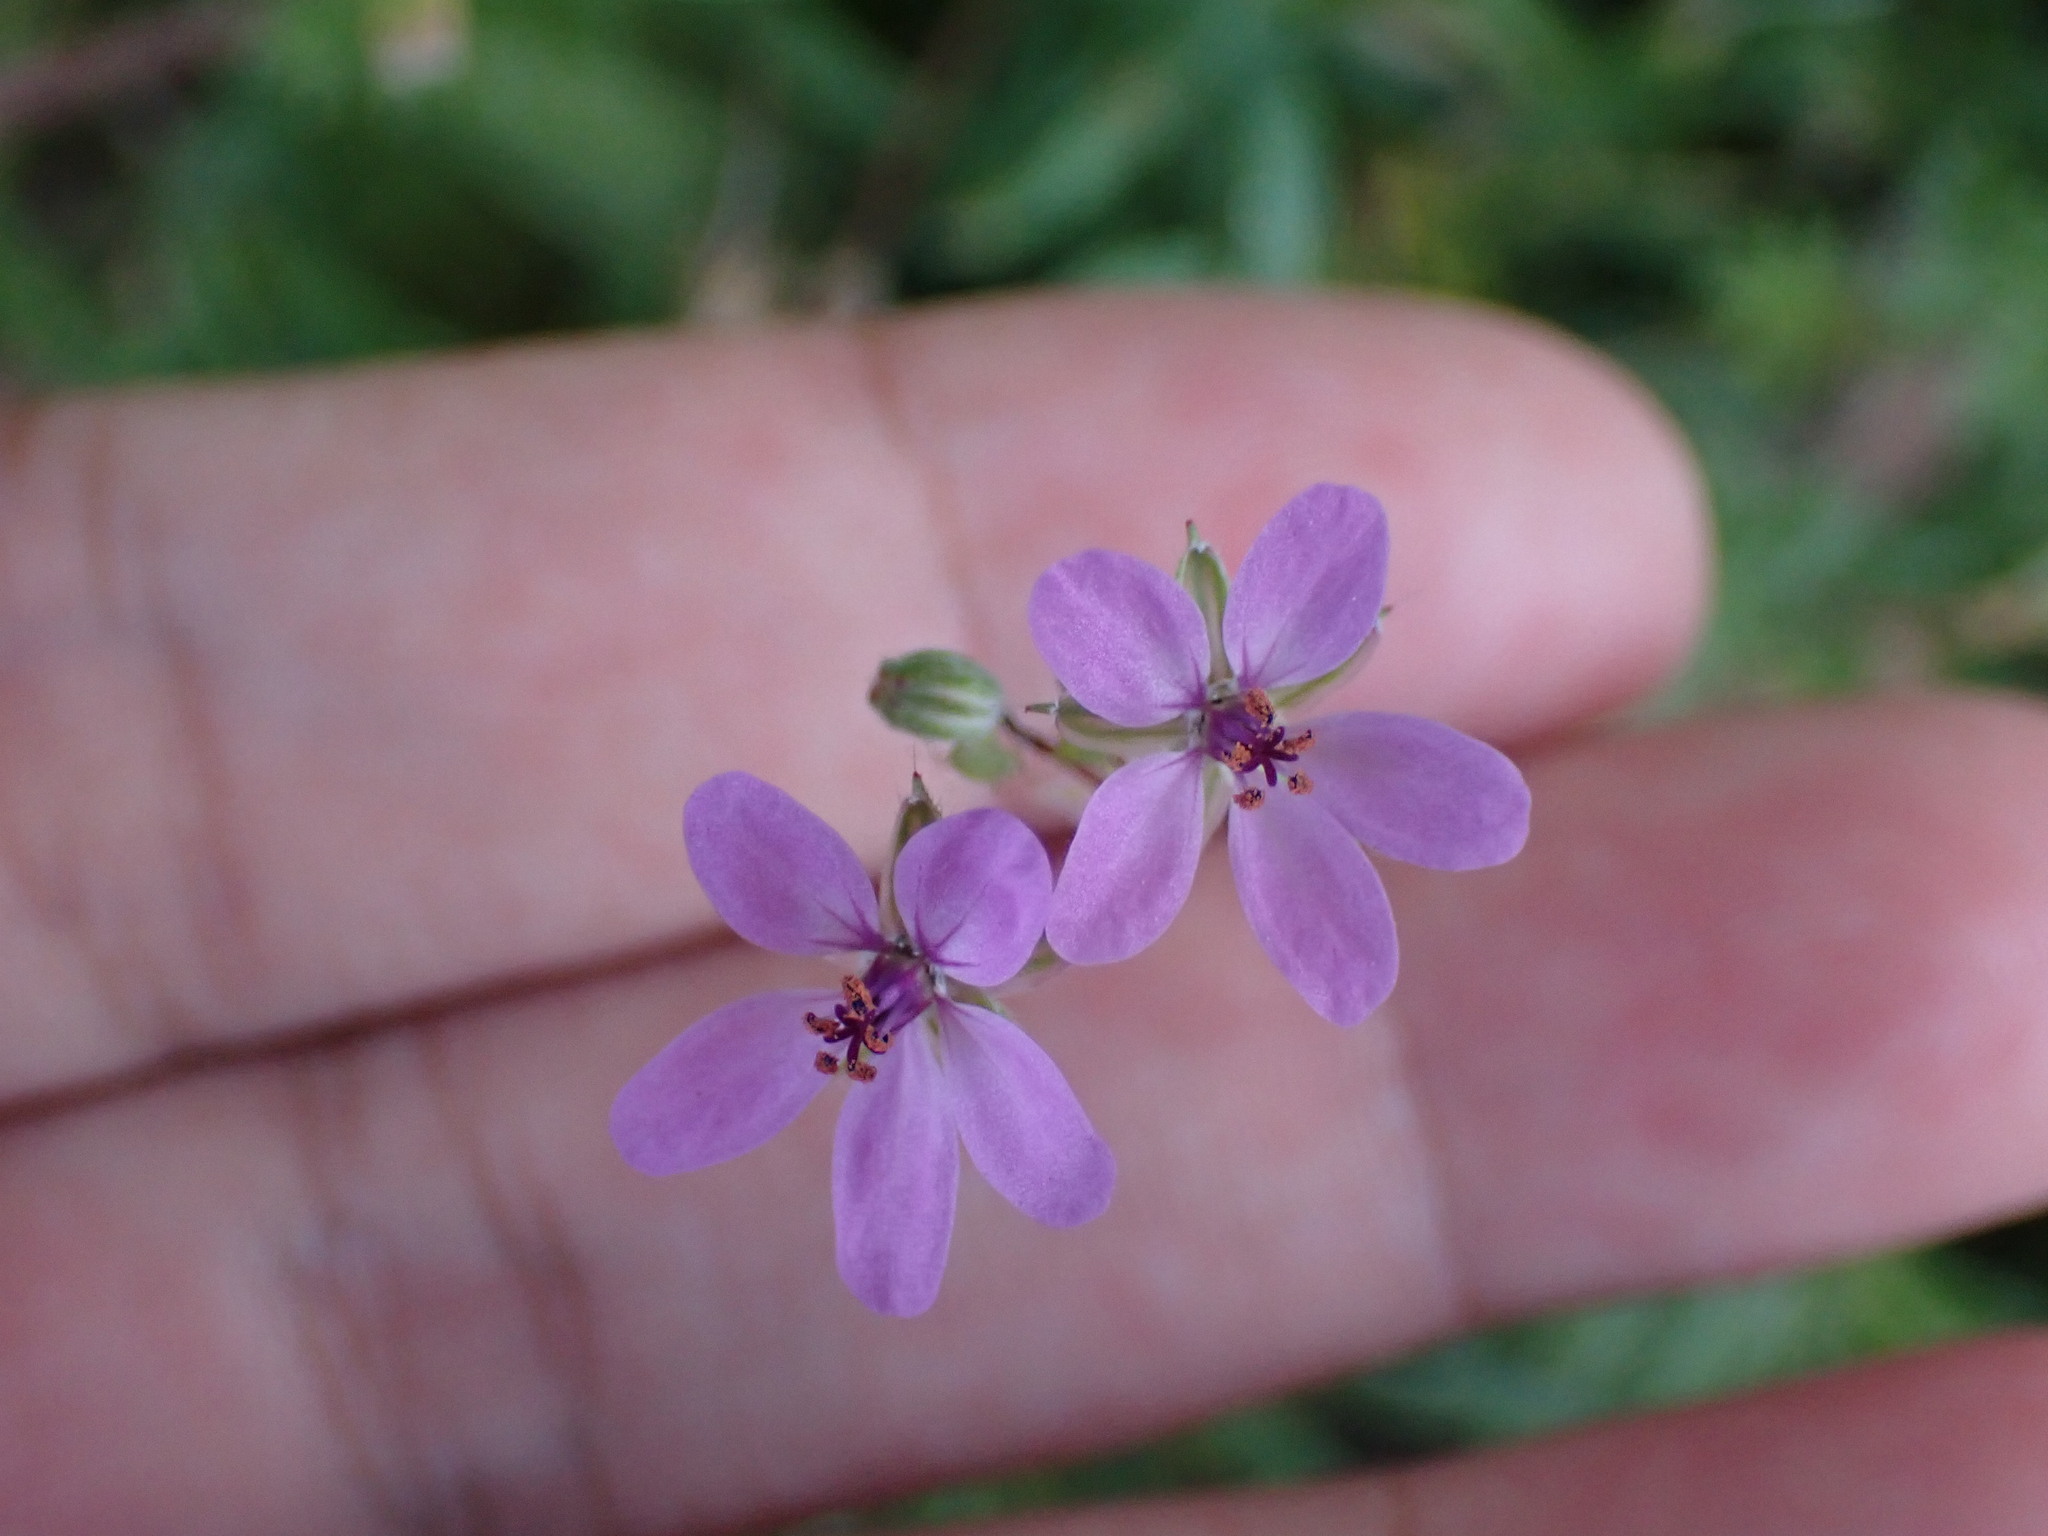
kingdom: Plantae
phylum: Tracheophyta
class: Magnoliopsida
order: Geraniales
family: Geraniaceae
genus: Erodium
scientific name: Erodium cicutarium
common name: Common stork's-bill
